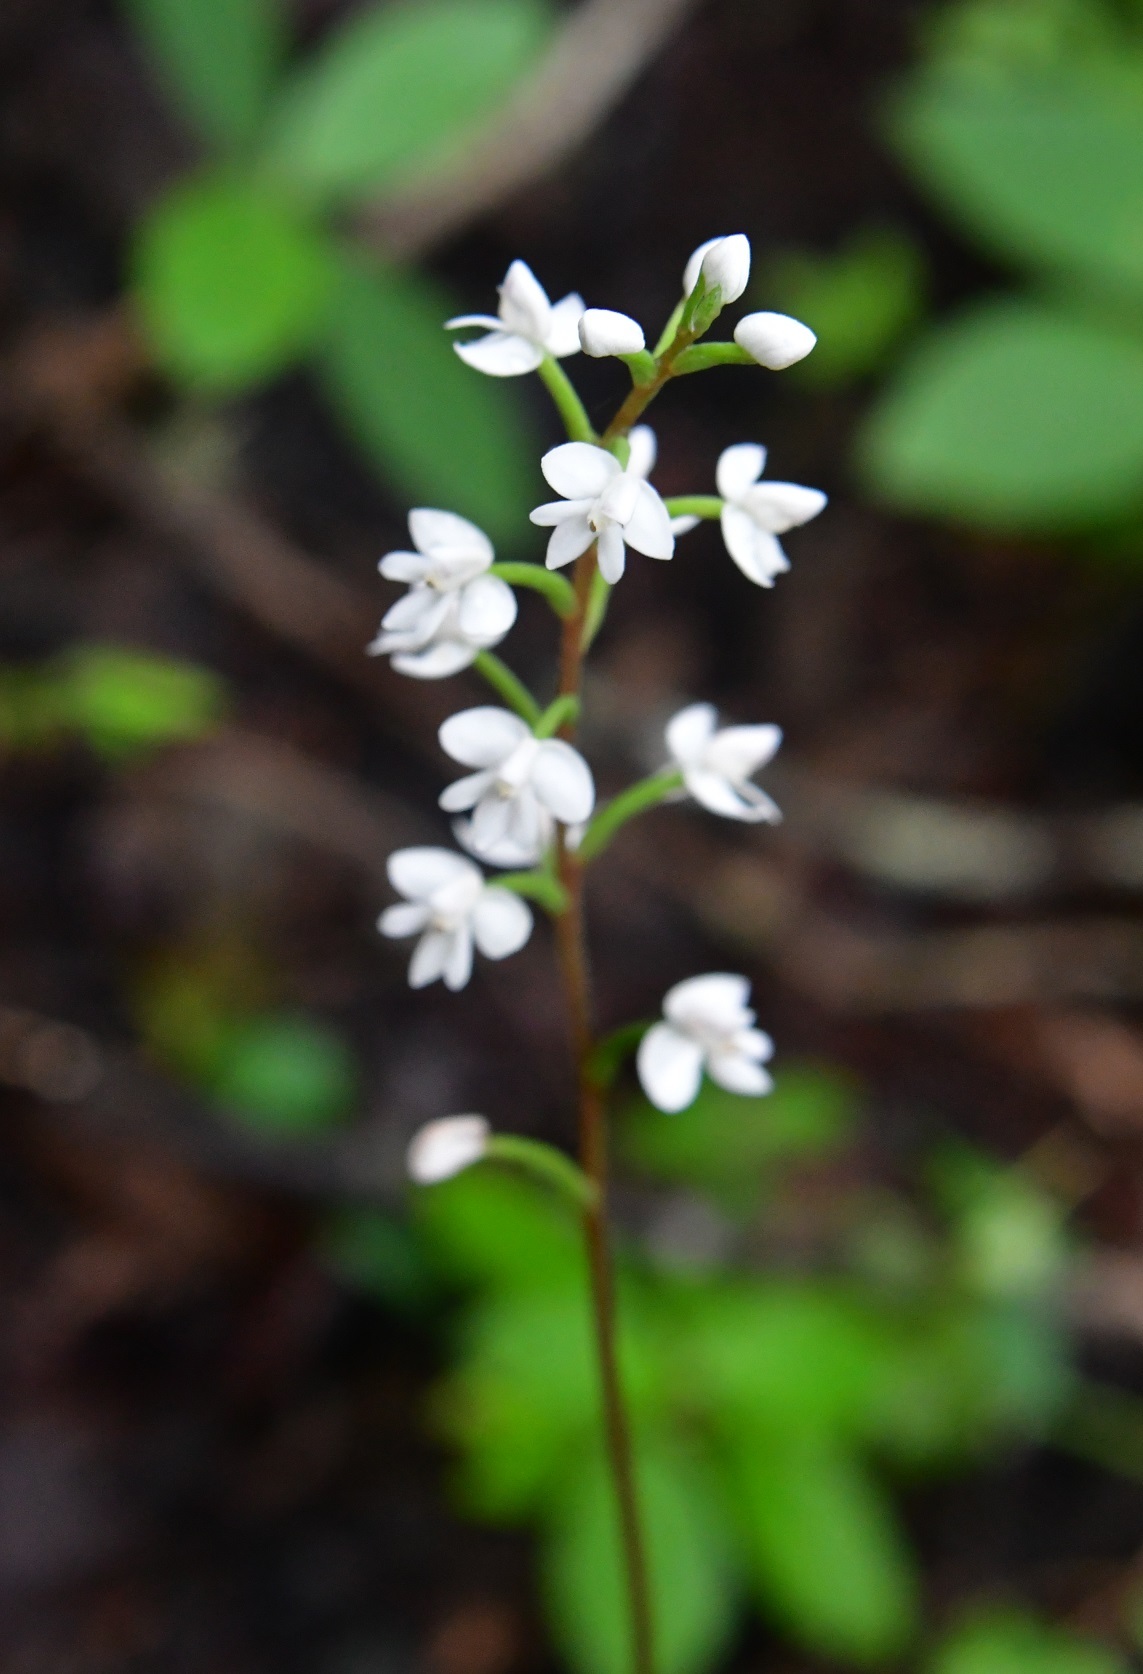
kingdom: Plantae
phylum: Tracheophyta
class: Liliopsida
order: Asparagales
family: Orchidaceae
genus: Cranichis
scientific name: Cranichis cochleata
